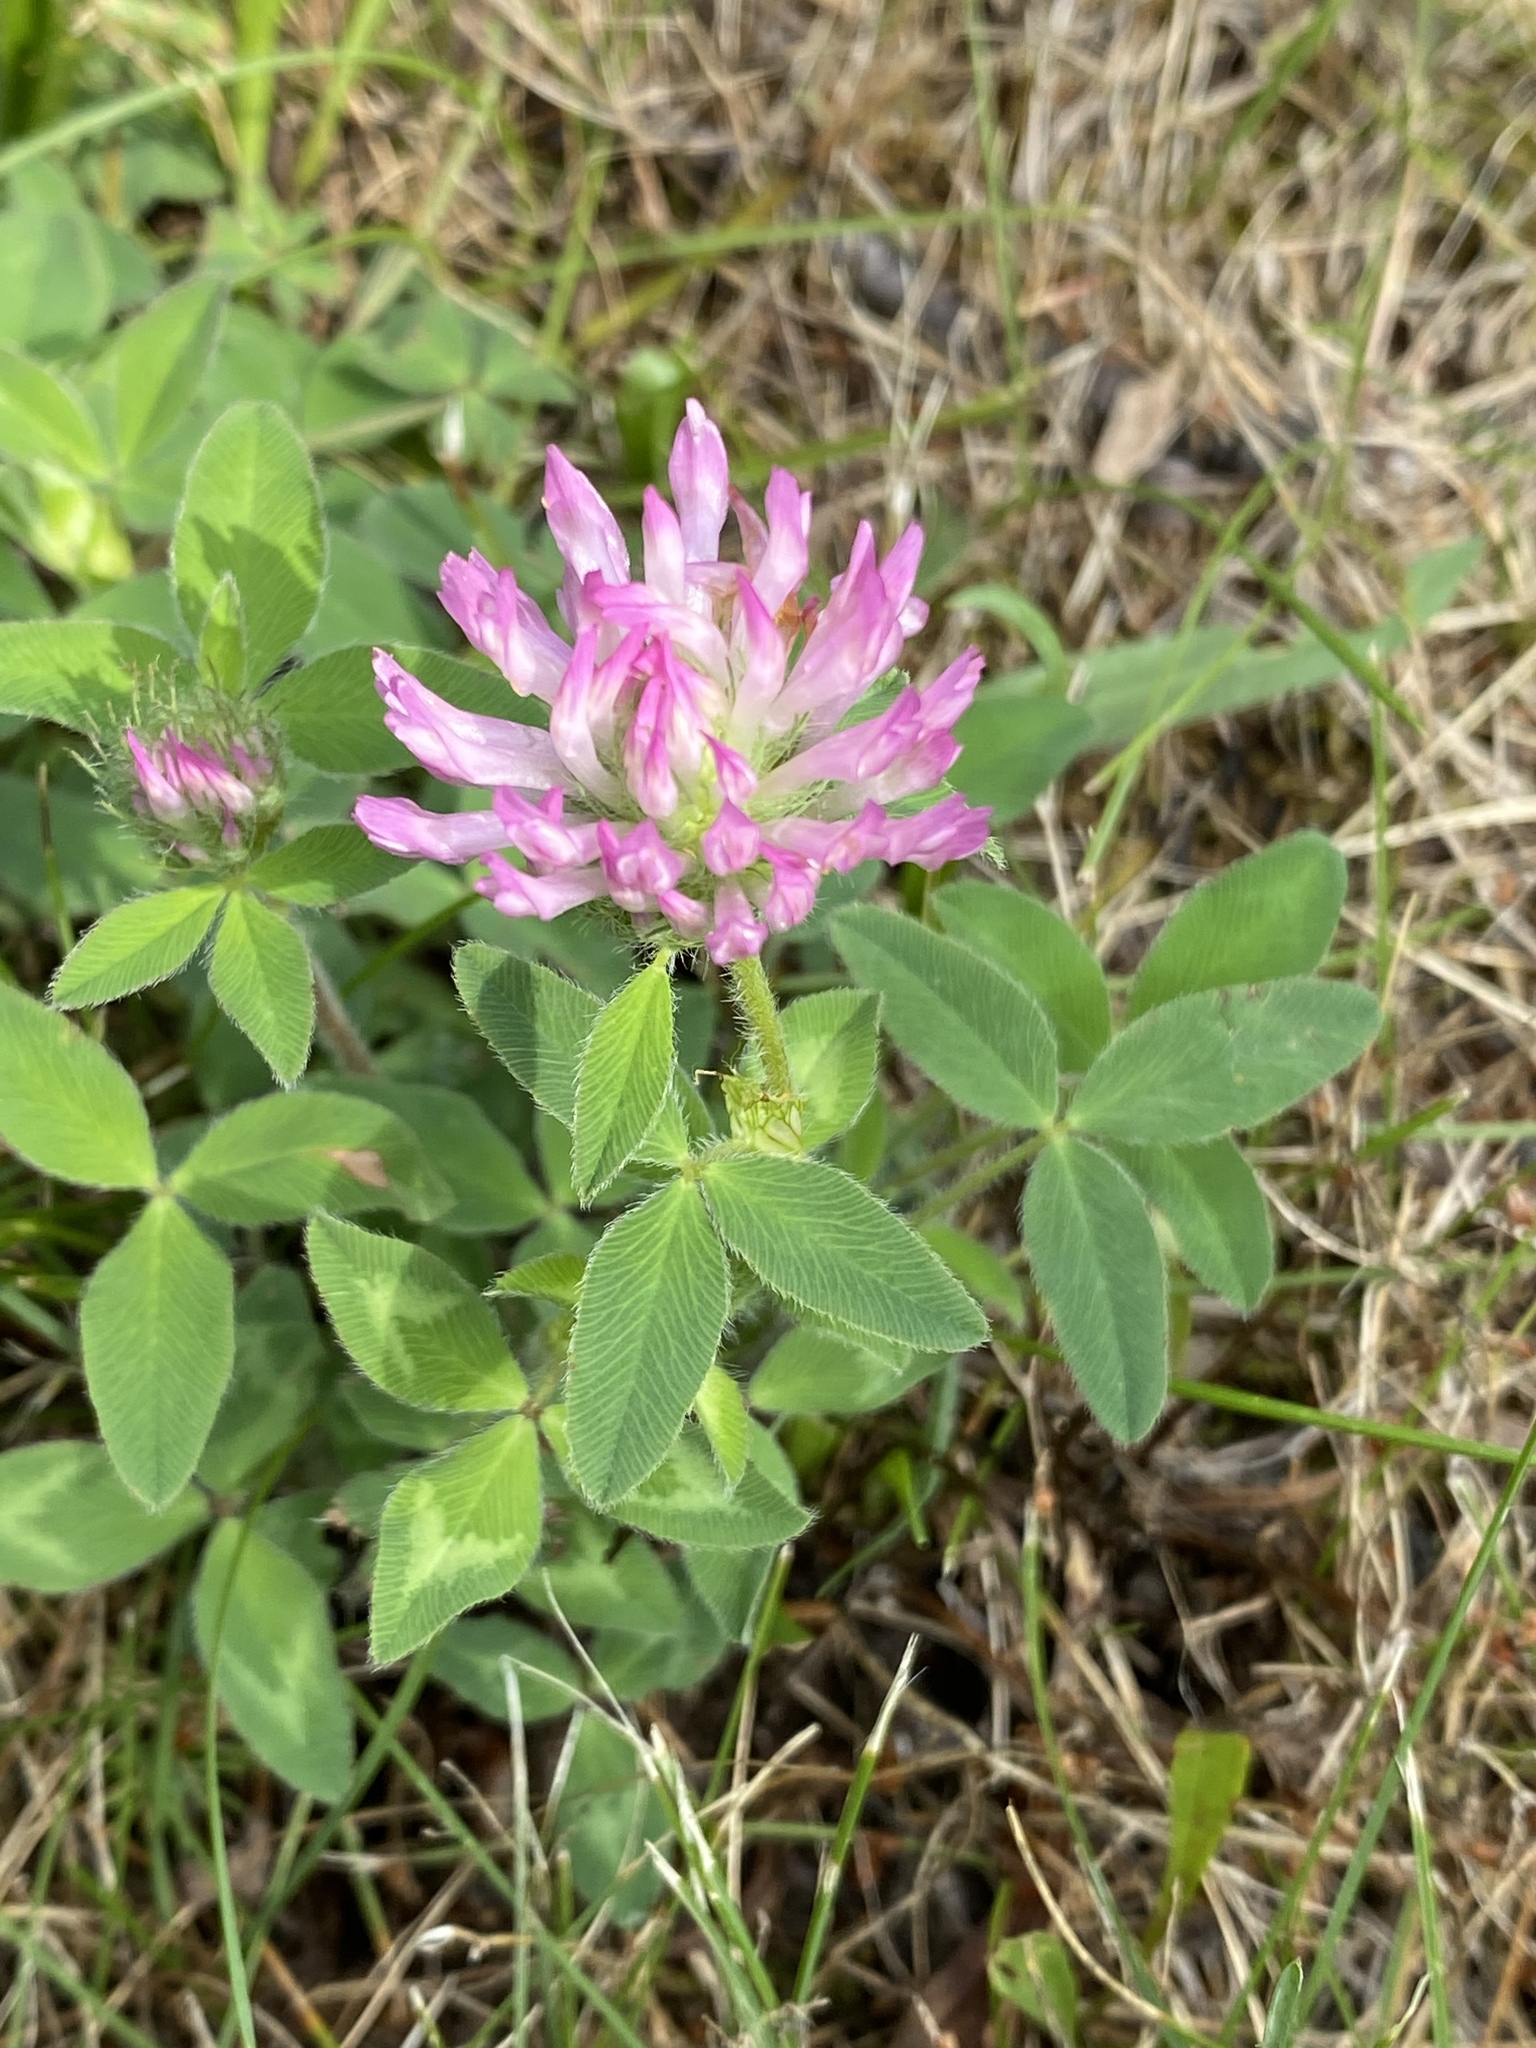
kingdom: Plantae
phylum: Tracheophyta
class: Magnoliopsida
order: Fabales
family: Fabaceae
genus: Trifolium
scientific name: Trifolium pratense
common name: Red clover
